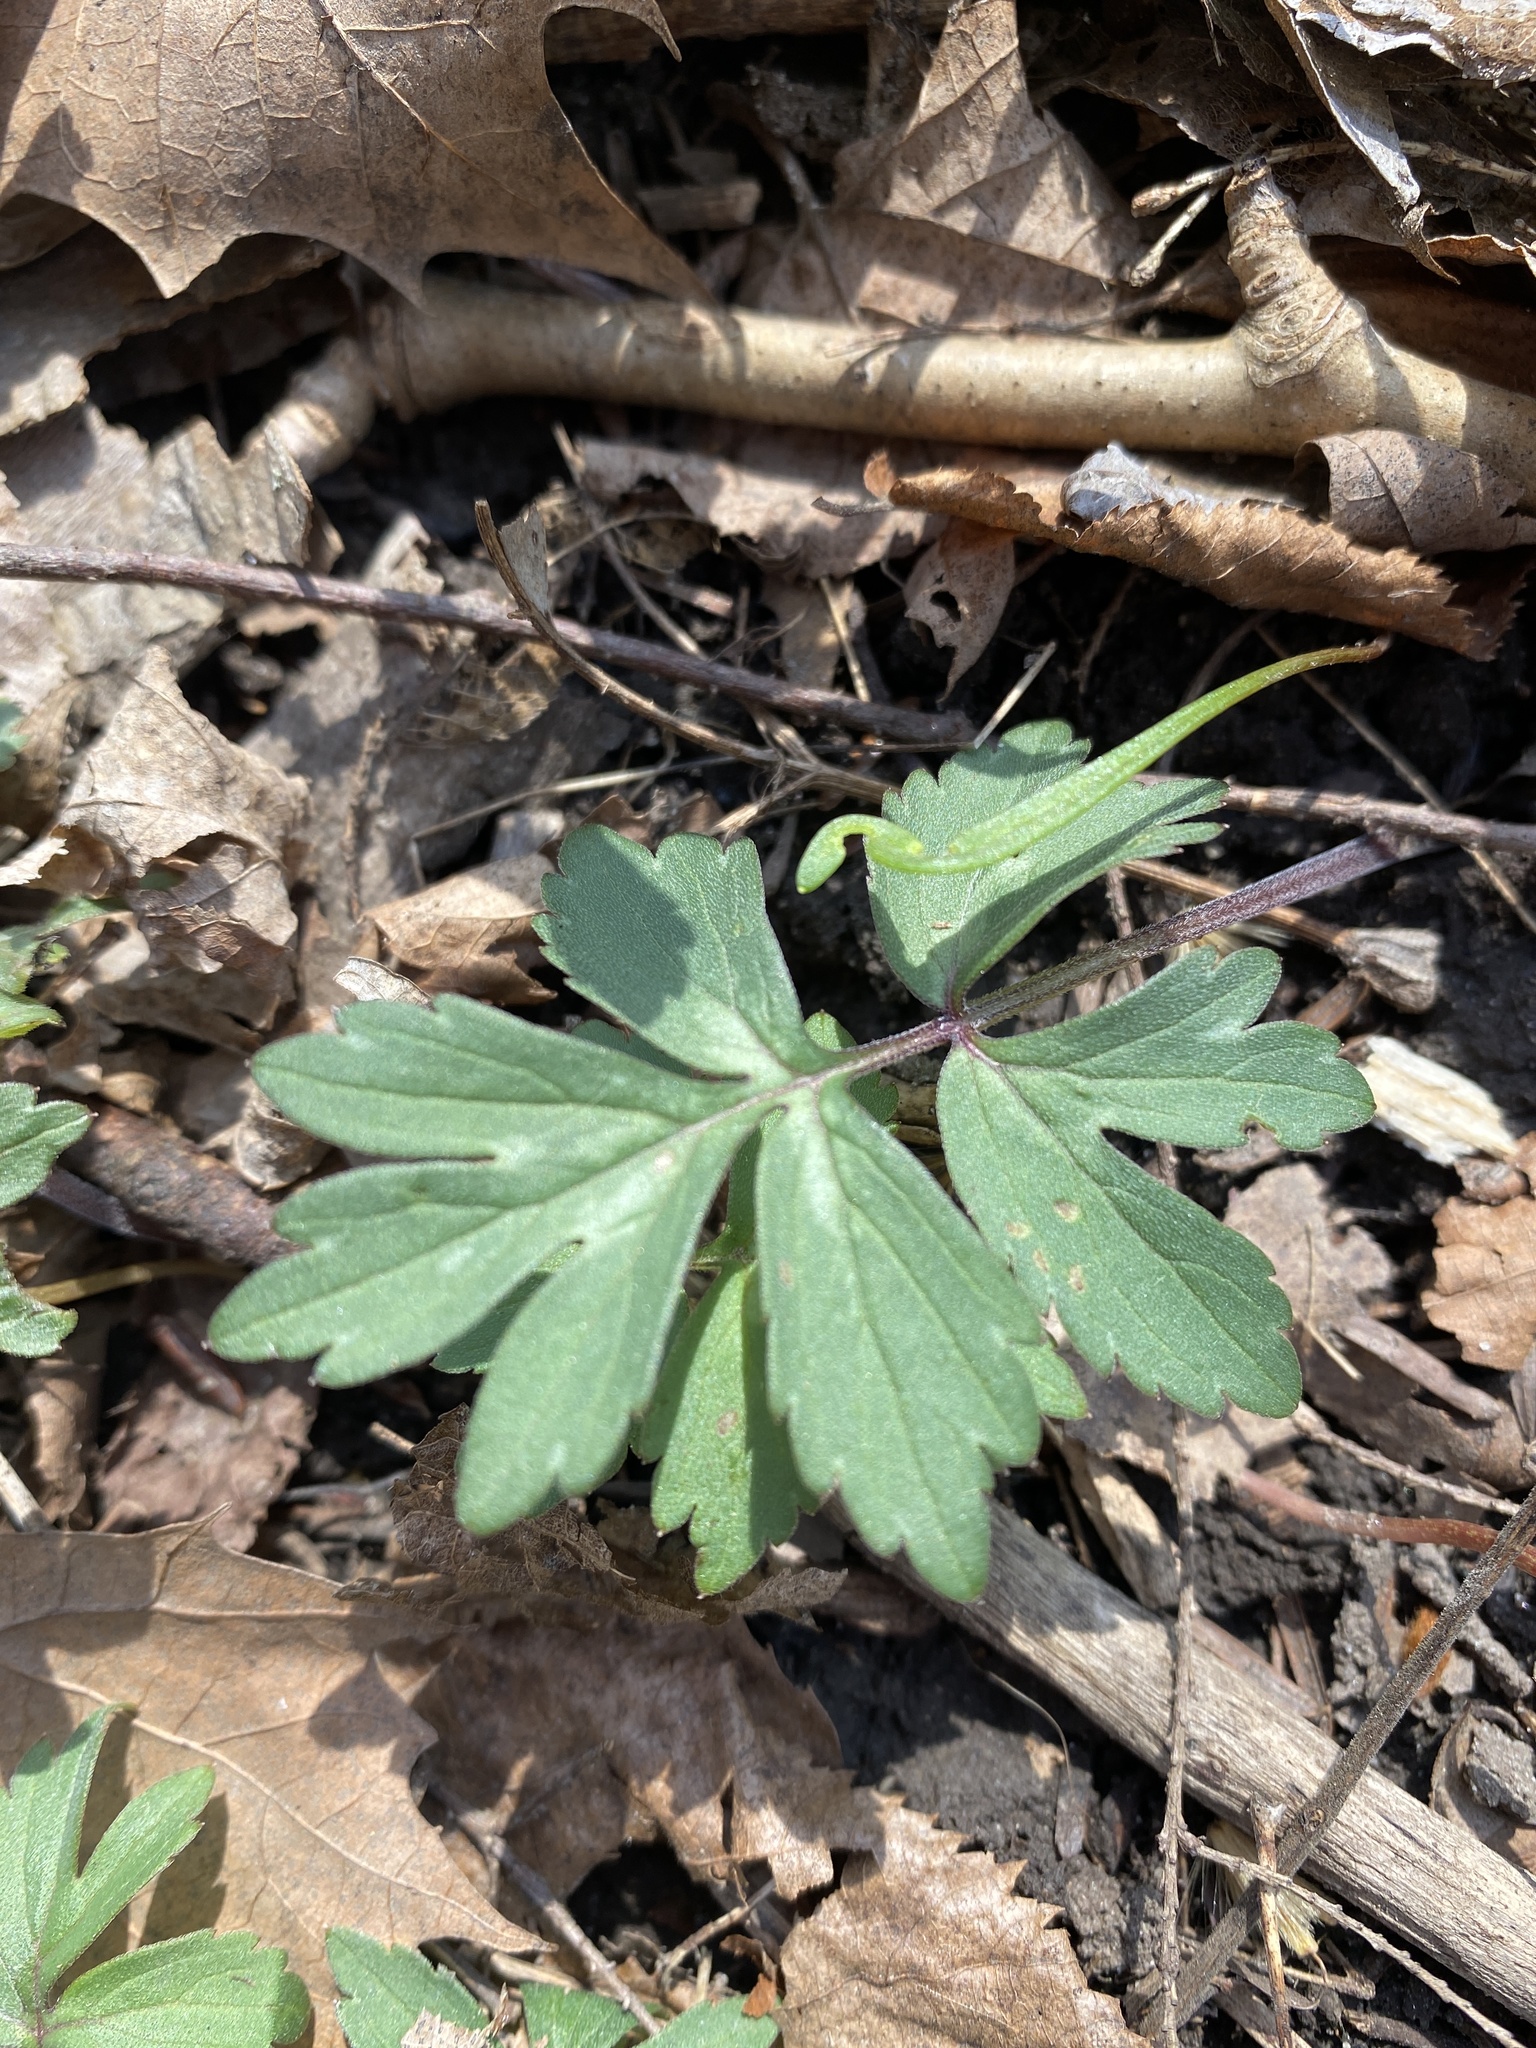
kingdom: Plantae
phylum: Tracheophyta
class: Magnoliopsida
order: Boraginales
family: Hydrophyllaceae
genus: Hydrophyllum
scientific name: Hydrophyllum virginianum
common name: Virginia waterleaf
